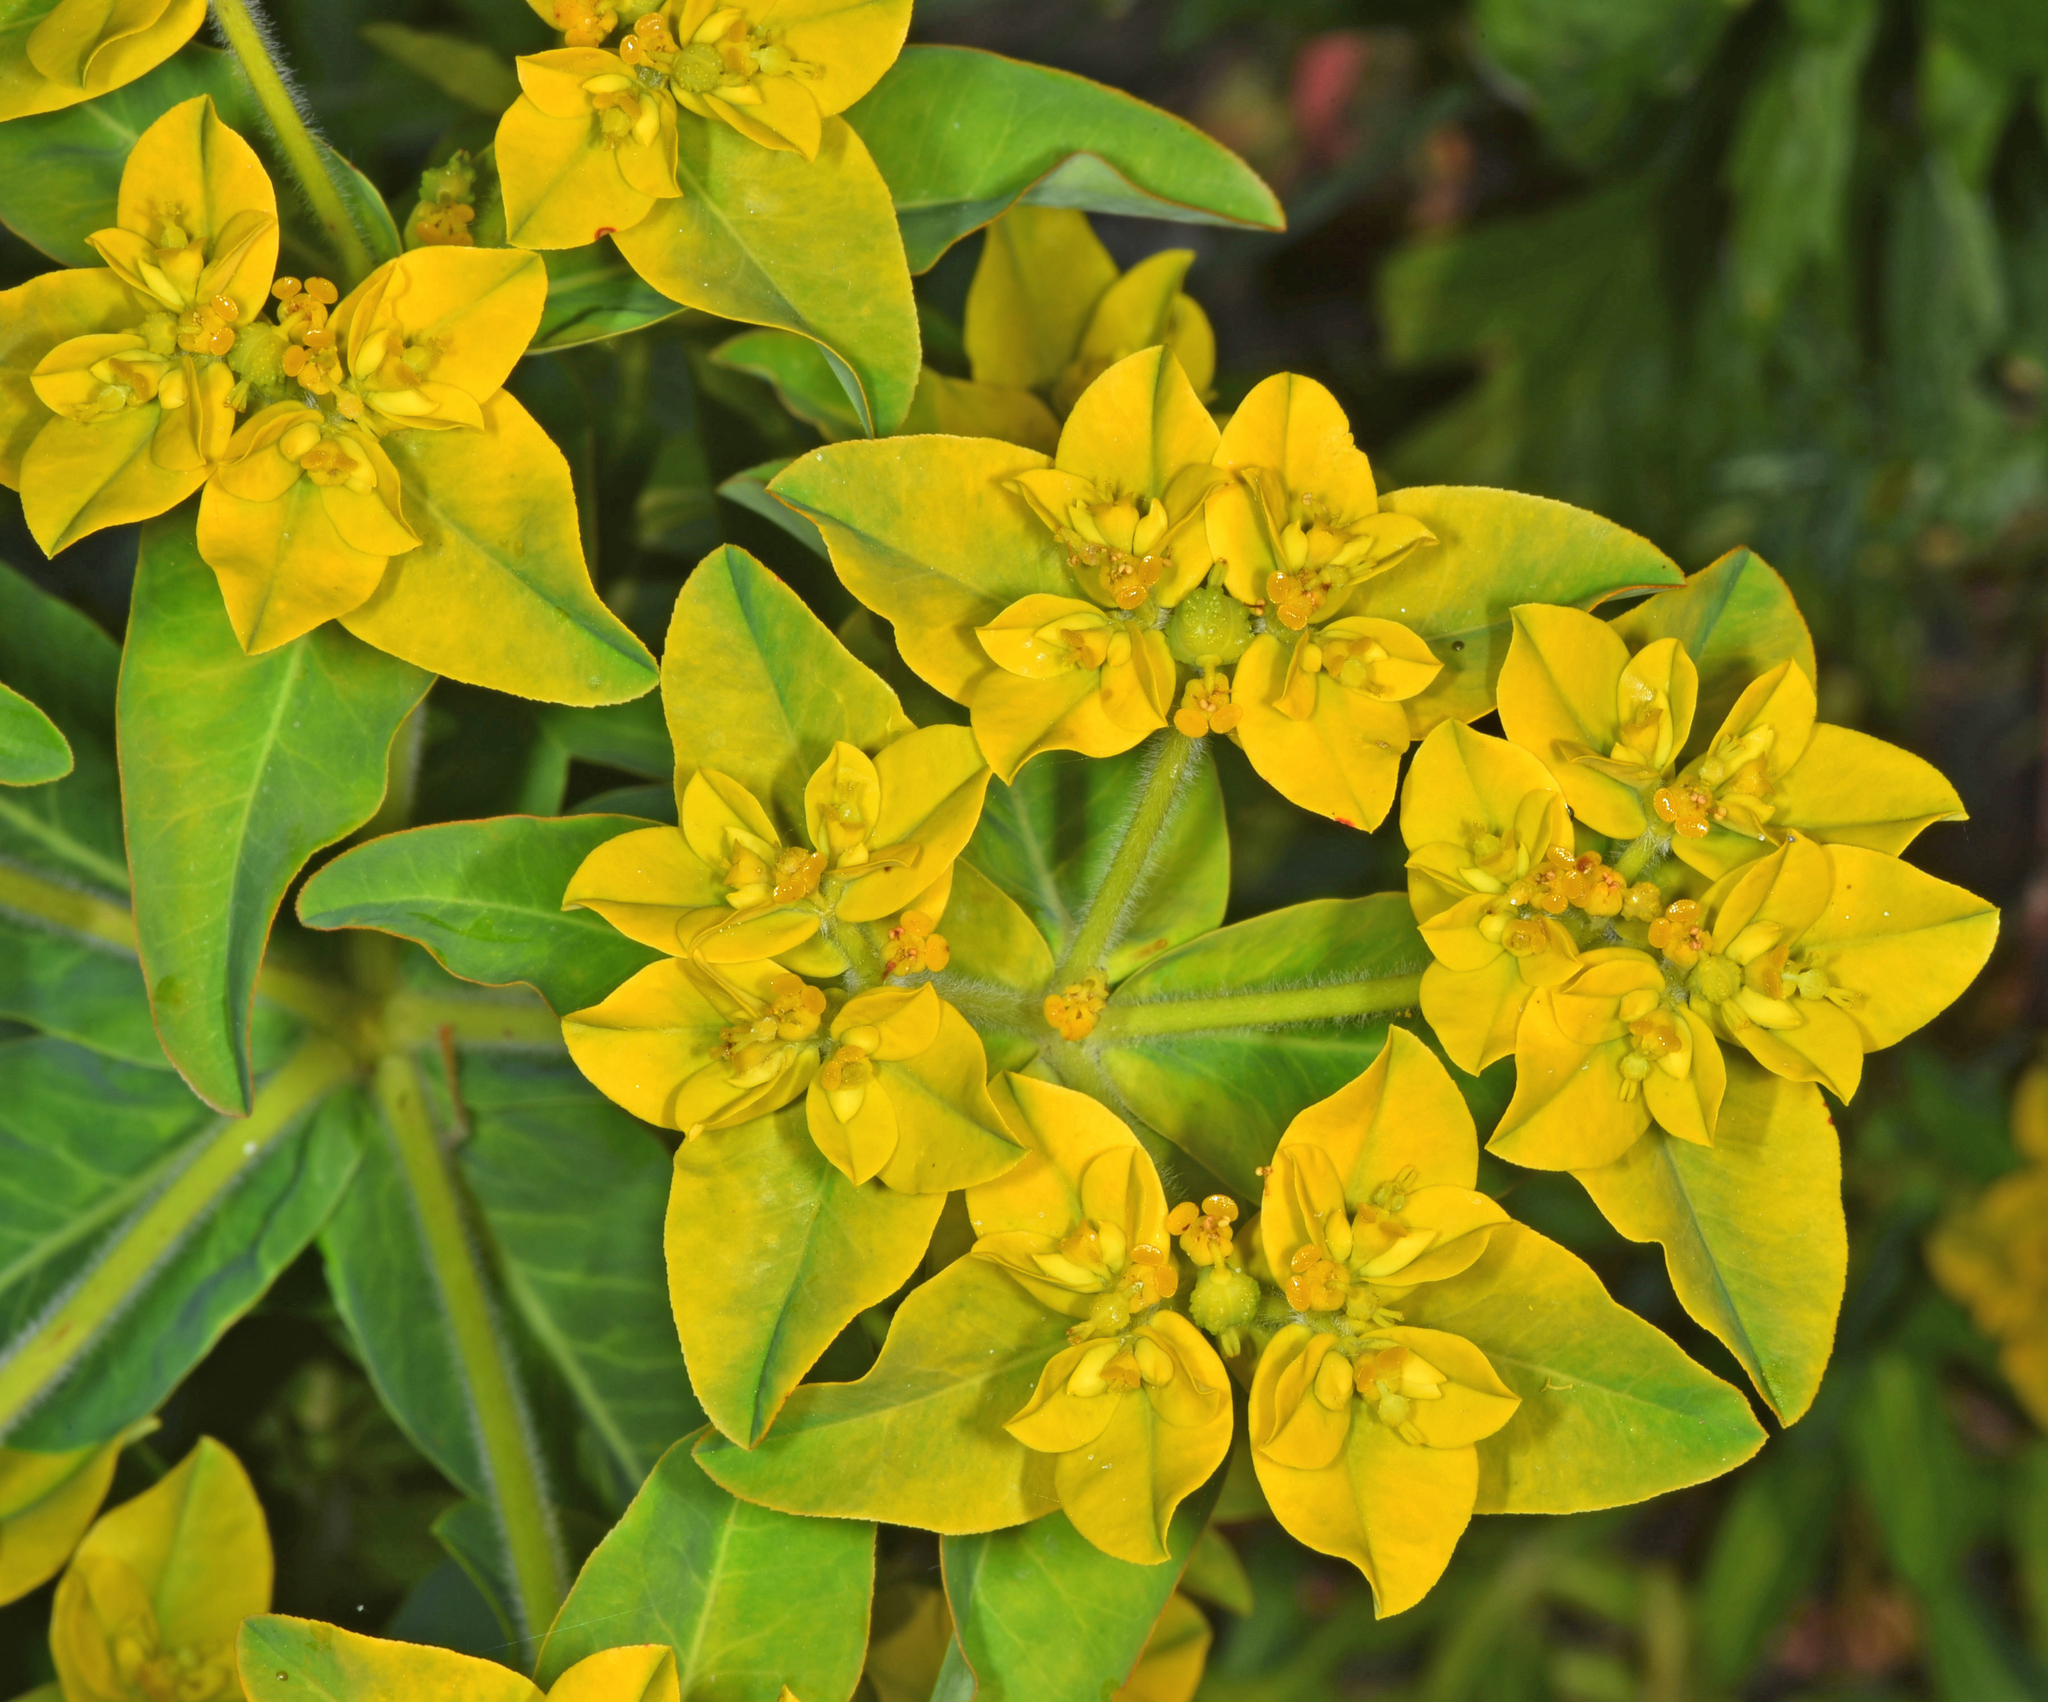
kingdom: Plantae
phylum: Tracheophyta
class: Magnoliopsida
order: Malpighiales
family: Euphorbiaceae
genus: Euphorbia
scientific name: Euphorbia oblongata
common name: Balkan spurge
